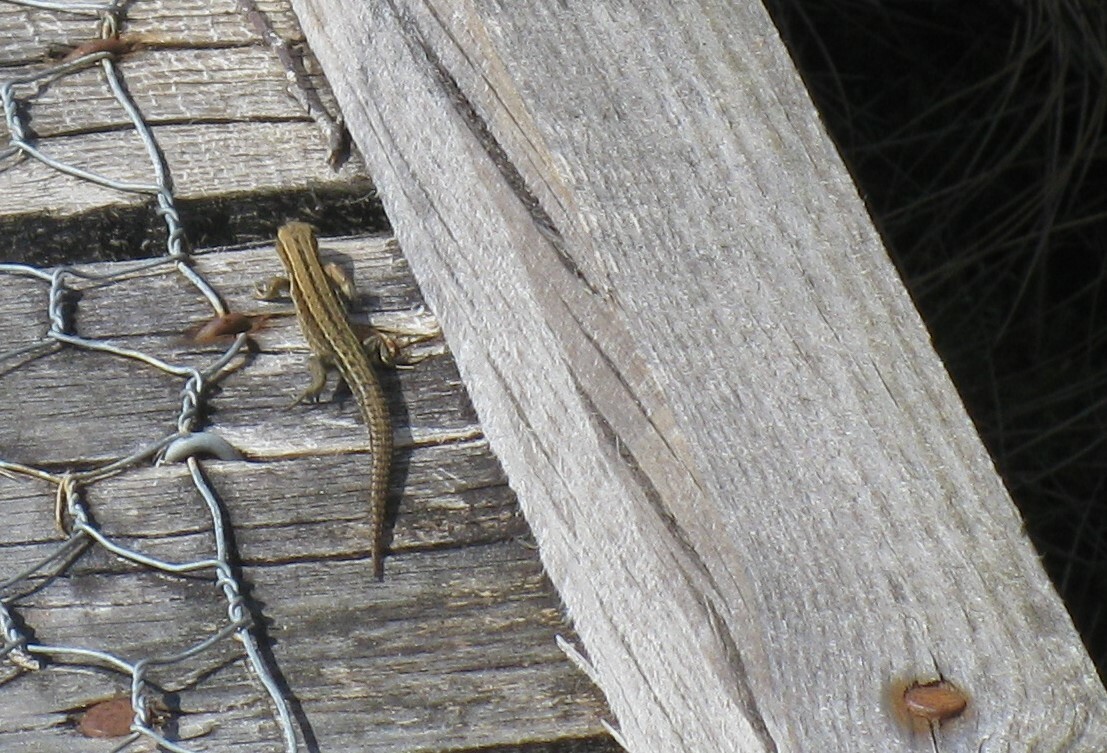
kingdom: Animalia
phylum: Chordata
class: Squamata
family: Lacertidae
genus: Zootoca
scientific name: Zootoca vivipara
